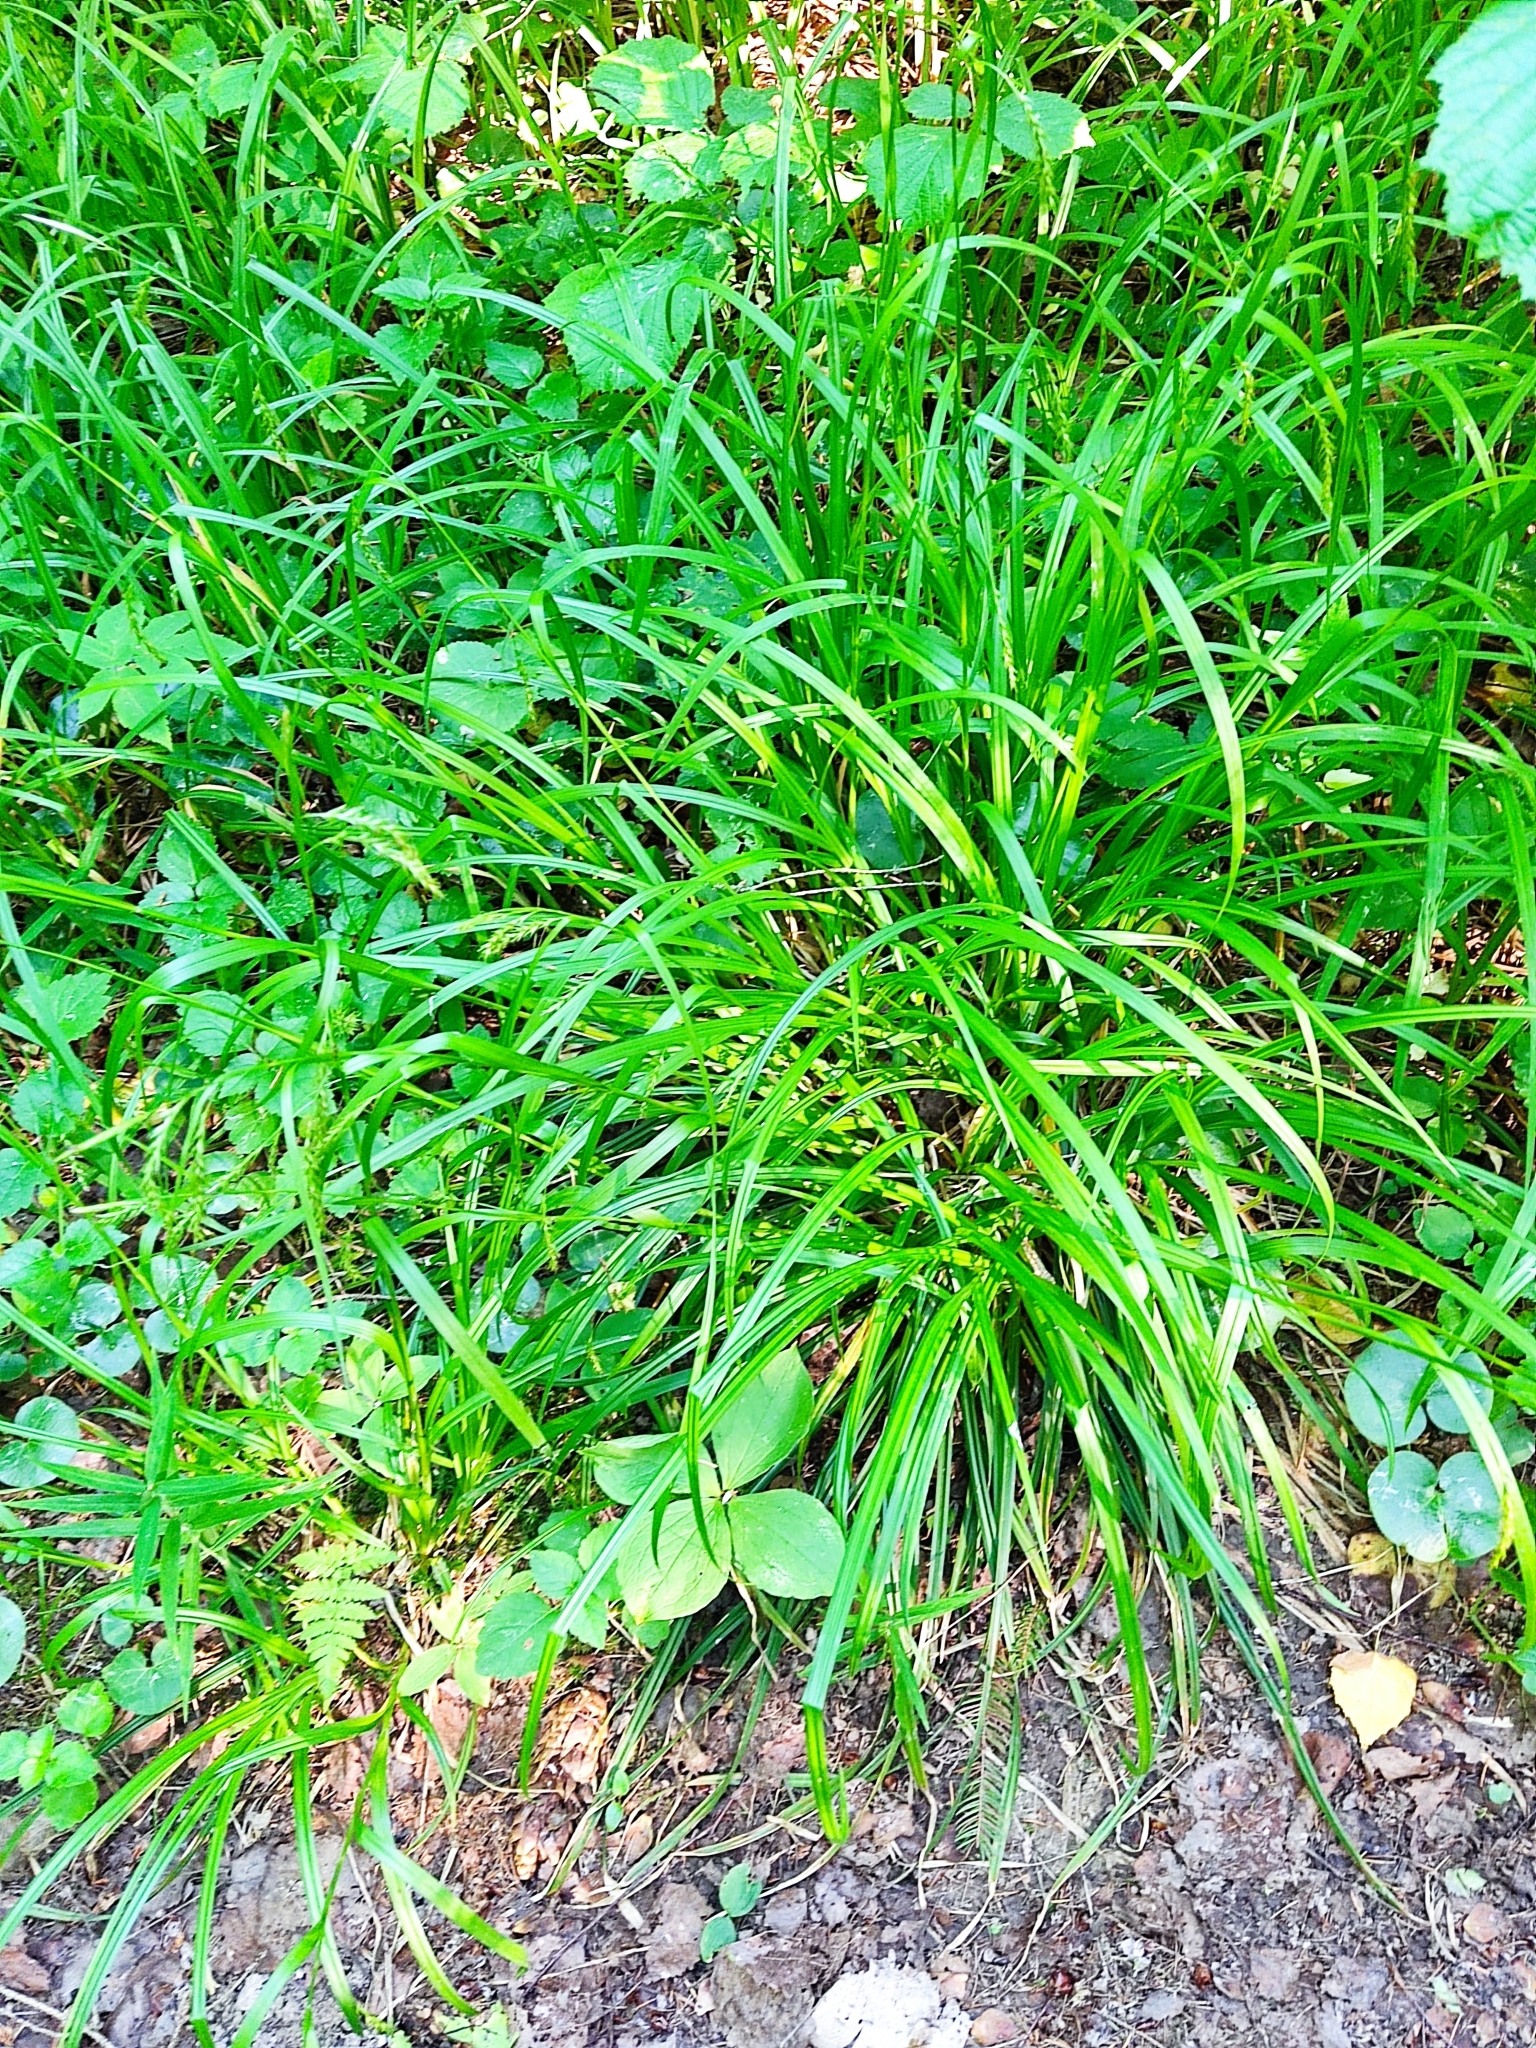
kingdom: Plantae
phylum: Tracheophyta
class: Liliopsida
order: Poales
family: Cyperaceae
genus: Carex
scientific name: Carex sylvatica
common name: Wood-sedge
